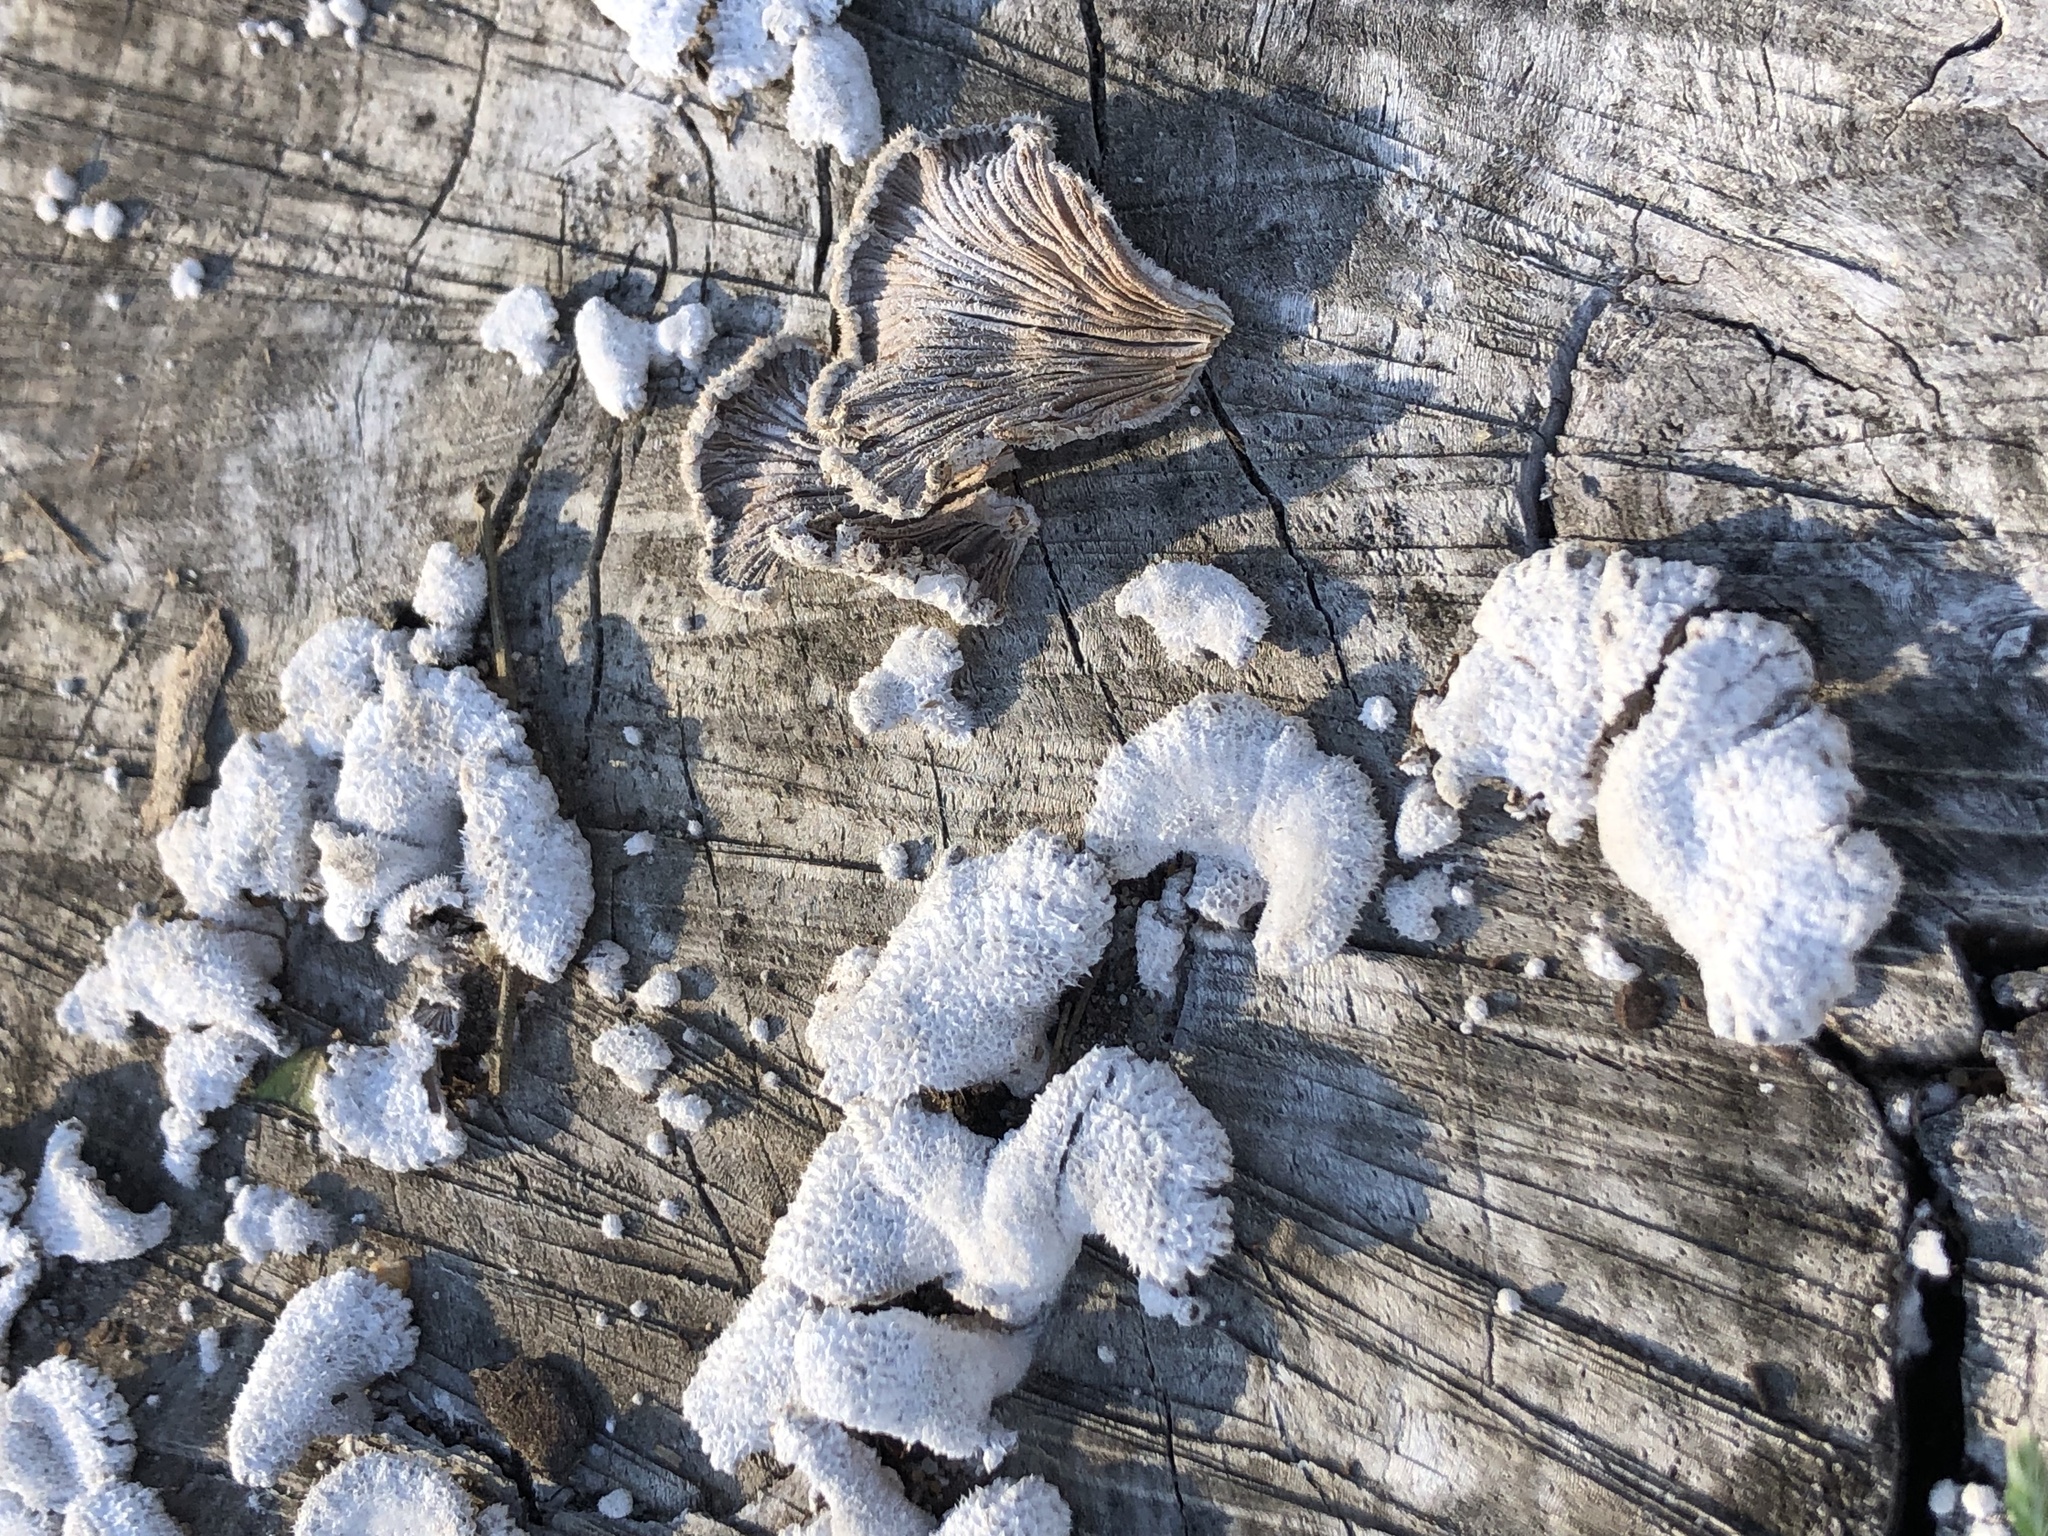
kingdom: Fungi
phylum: Basidiomycota
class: Agaricomycetes
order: Agaricales
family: Schizophyllaceae
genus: Schizophyllum
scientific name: Schizophyllum commune
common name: Common porecrust
